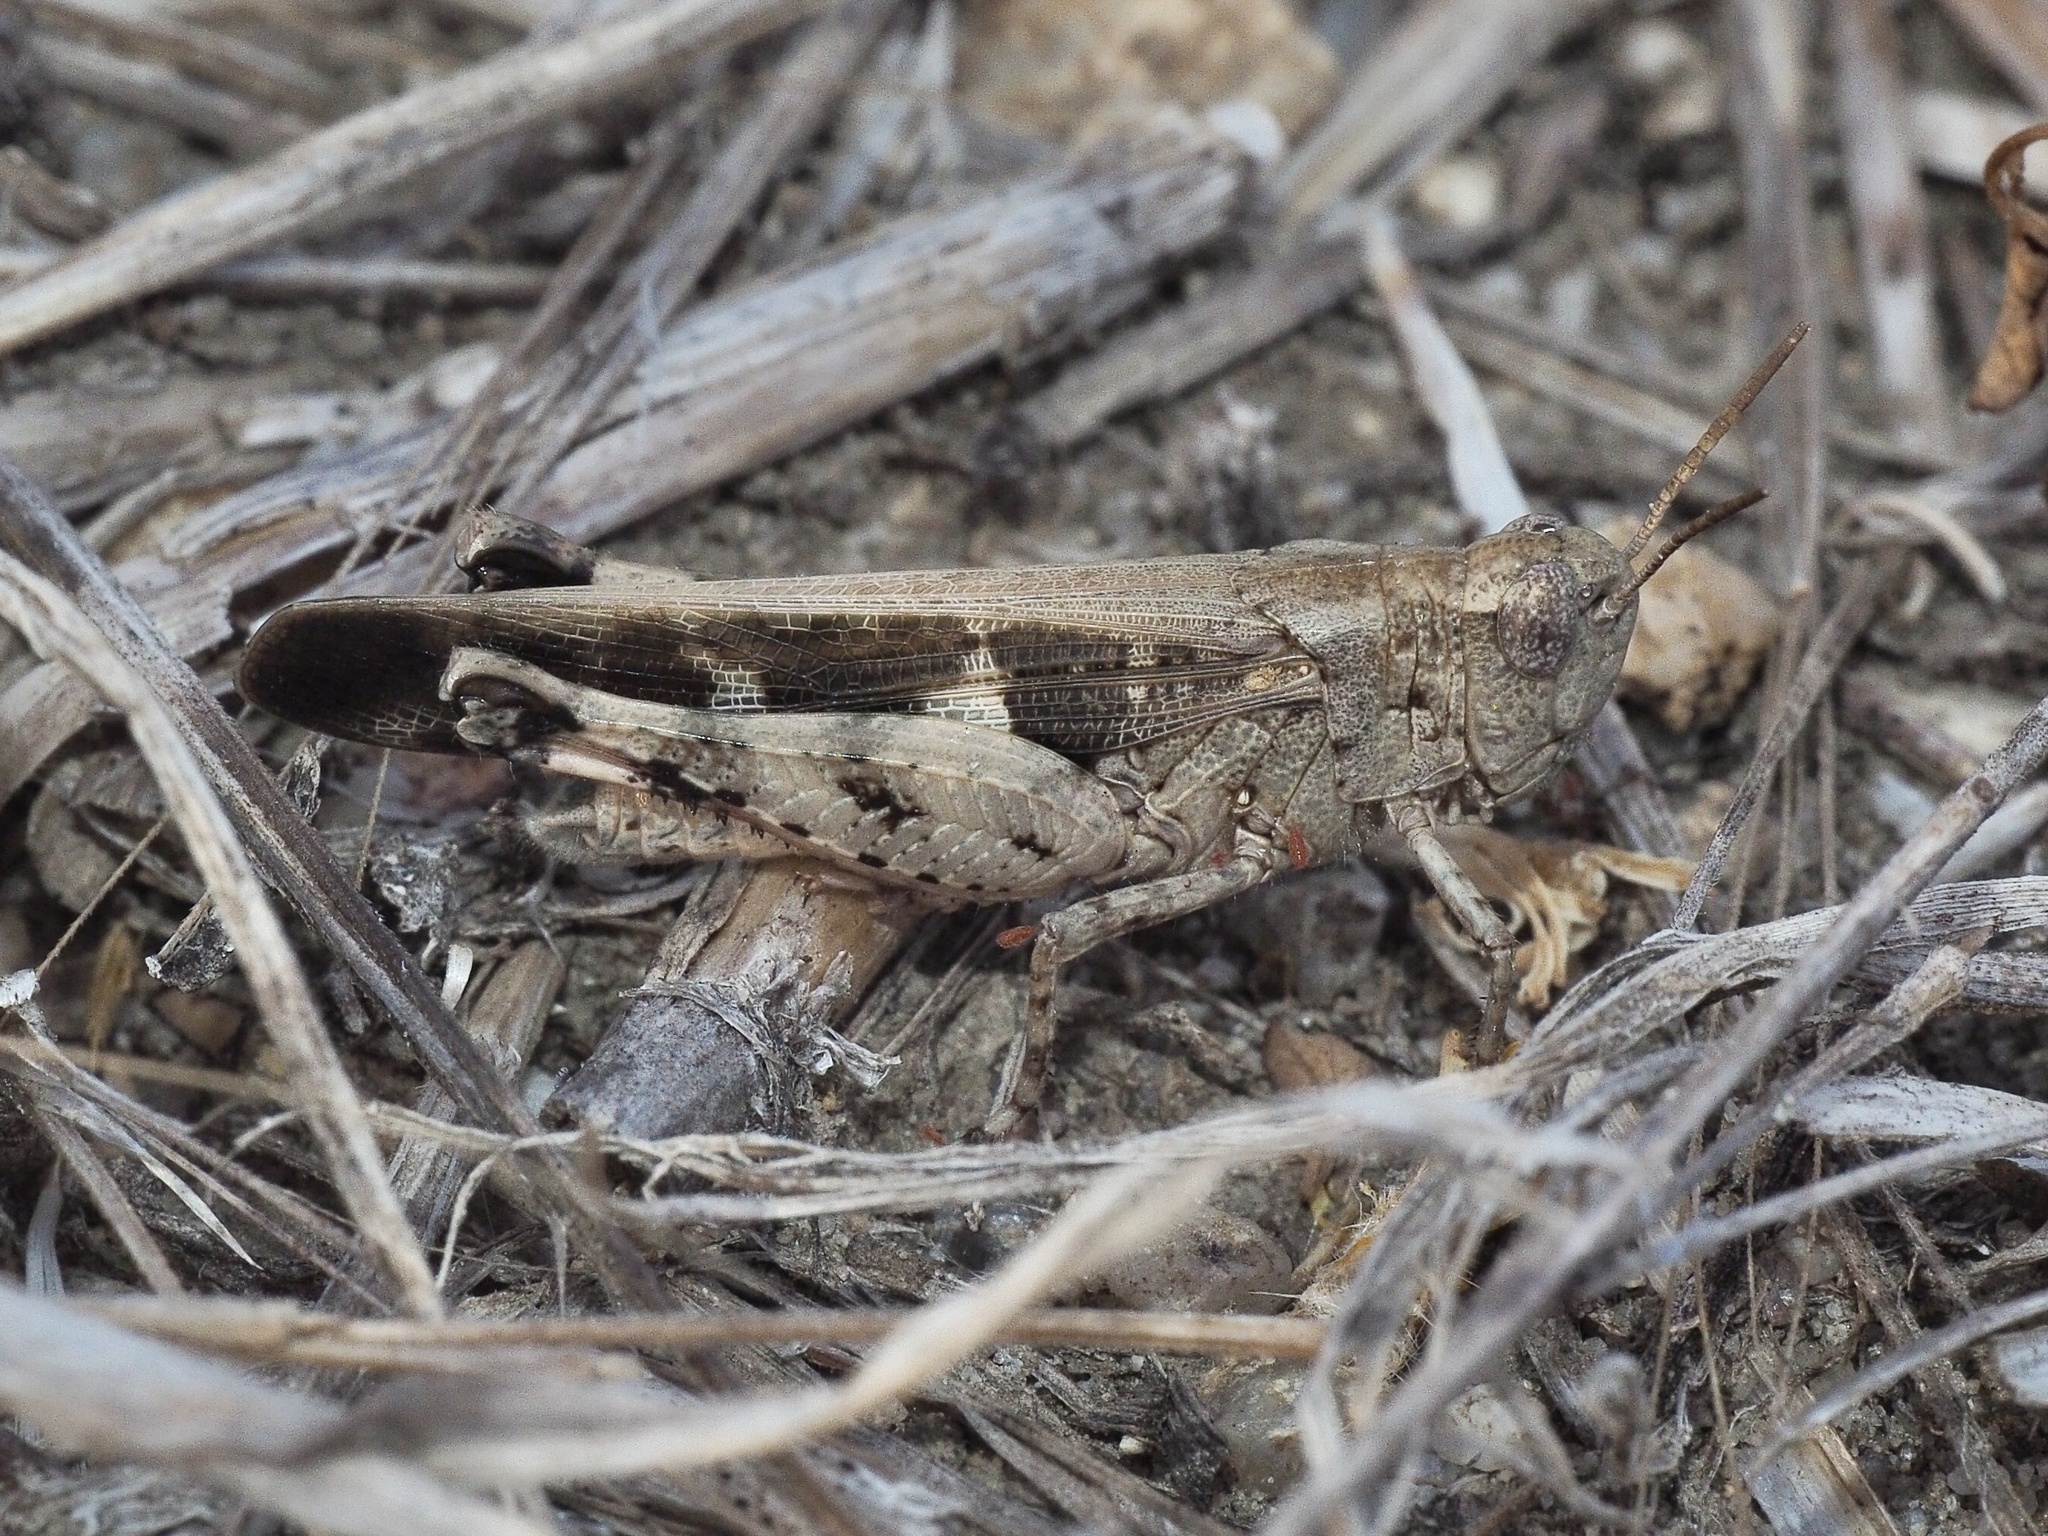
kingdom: Animalia
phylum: Arthropoda
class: Insecta
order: Orthoptera
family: Acrididae
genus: Aiolopus
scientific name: Aiolopus strepens
